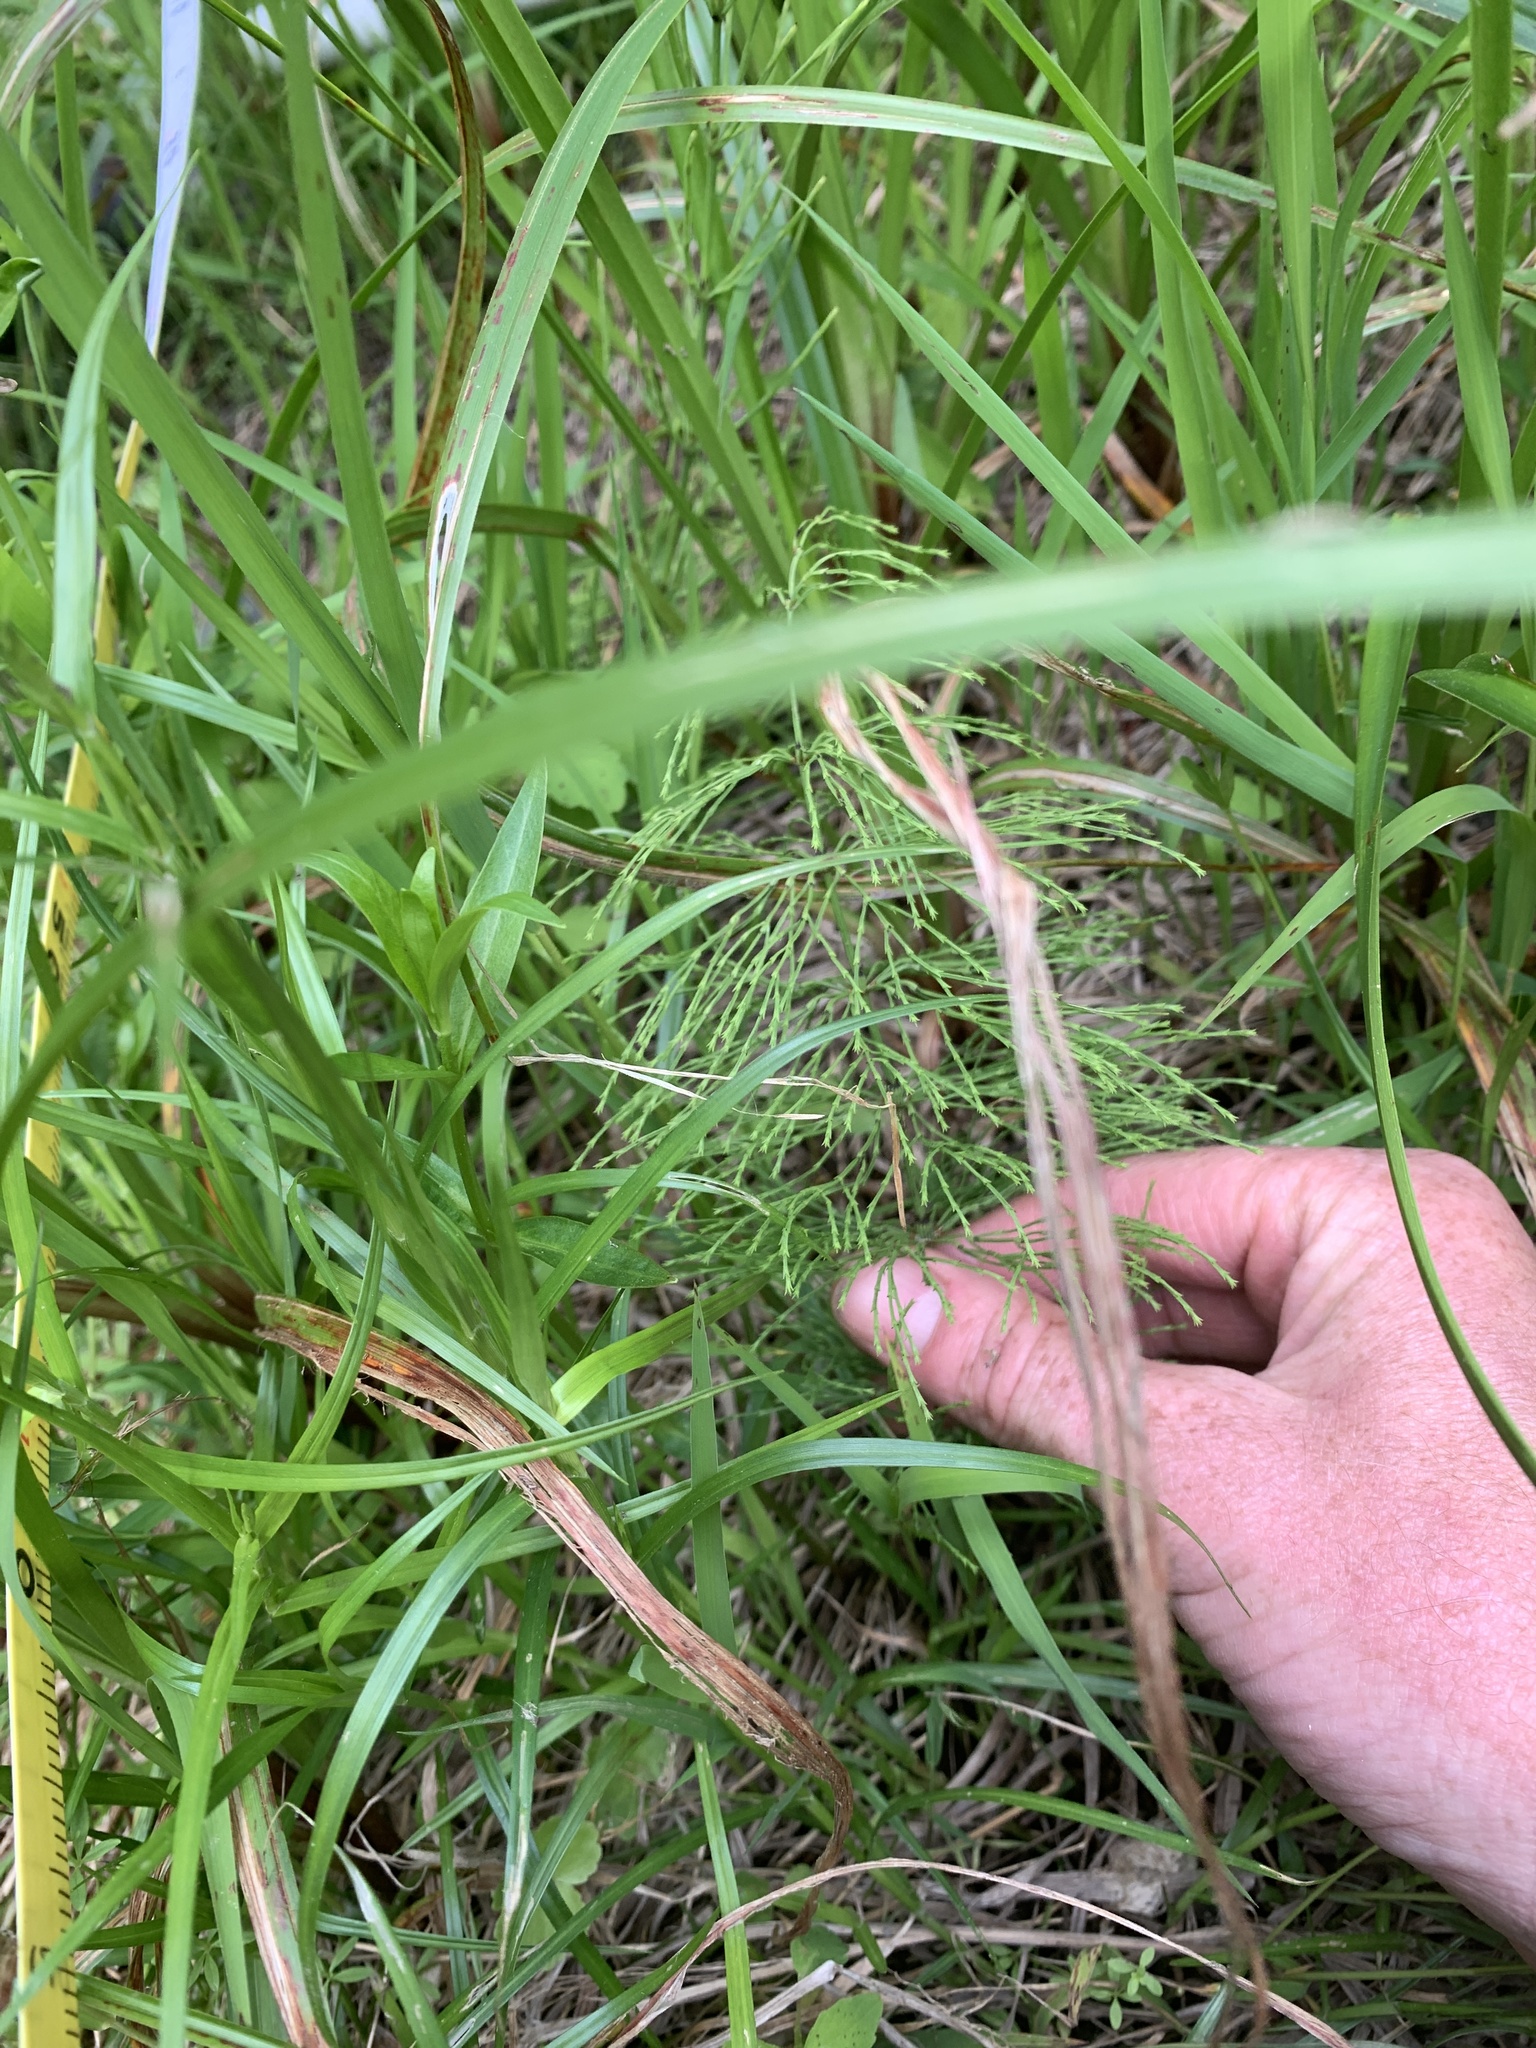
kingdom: Plantae
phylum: Tracheophyta
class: Polypodiopsida
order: Equisetales
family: Equisetaceae
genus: Equisetum
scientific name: Equisetum sylvaticum
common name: Wood horsetail
